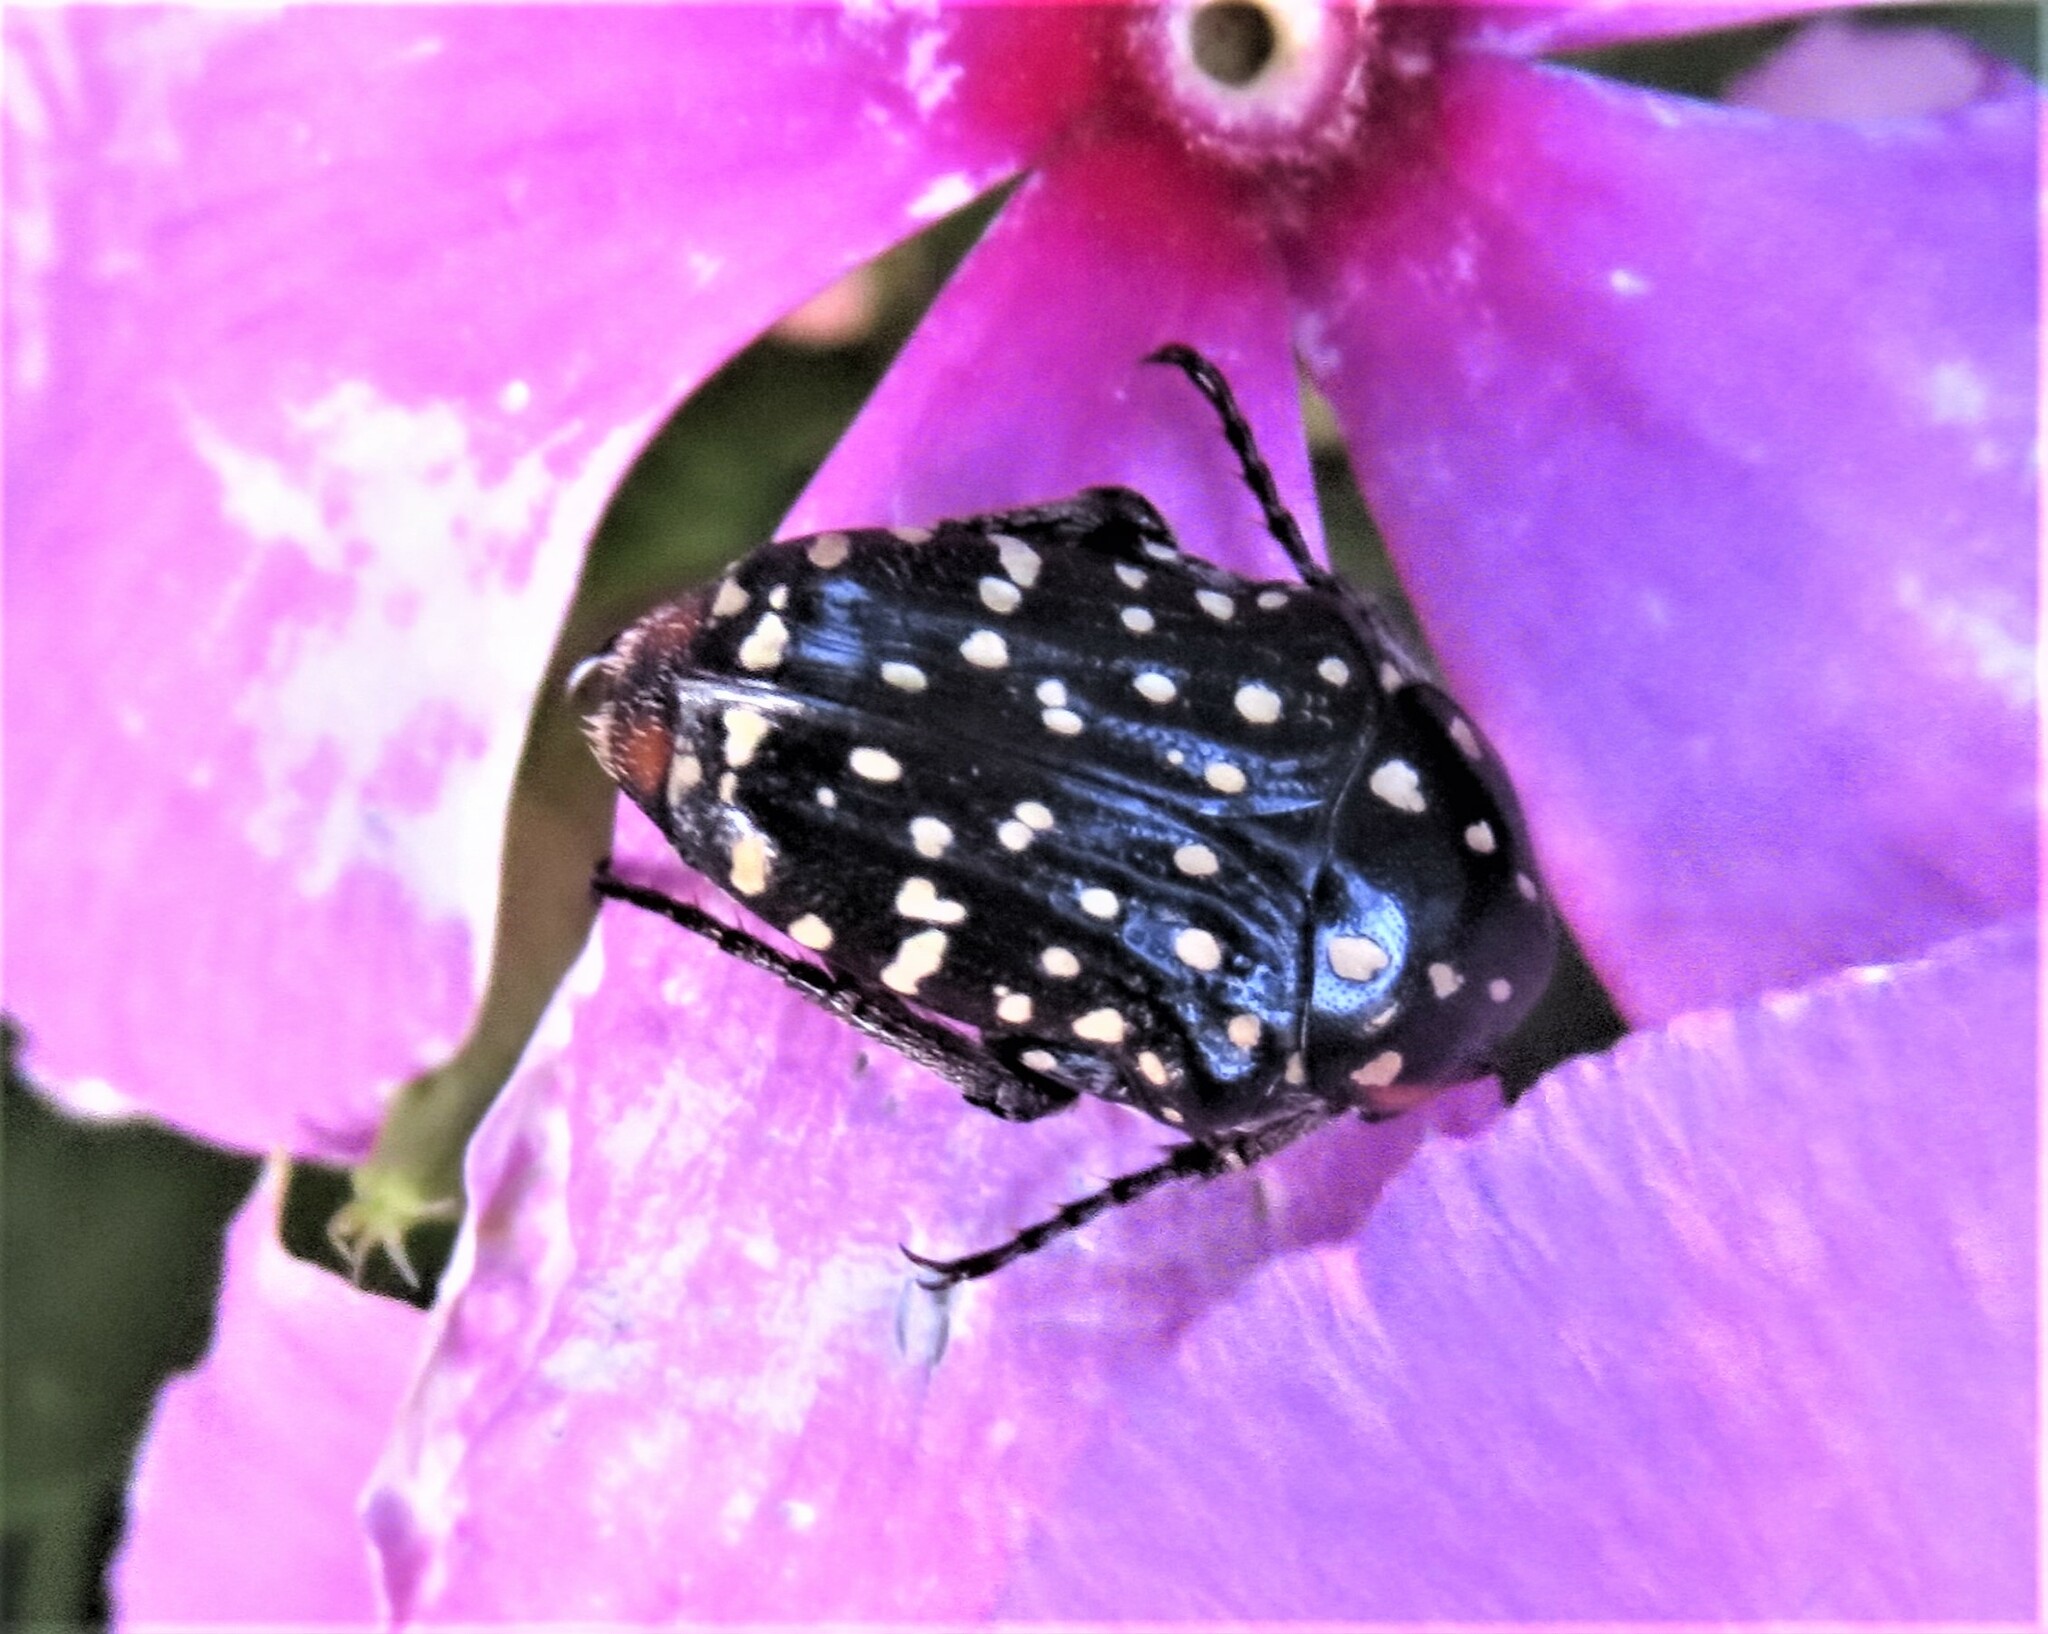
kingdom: Animalia
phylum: Arthropoda
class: Insecta
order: Coleoptera
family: Scarabaeidae
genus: Oxythyrea
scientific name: Oxythyrea
